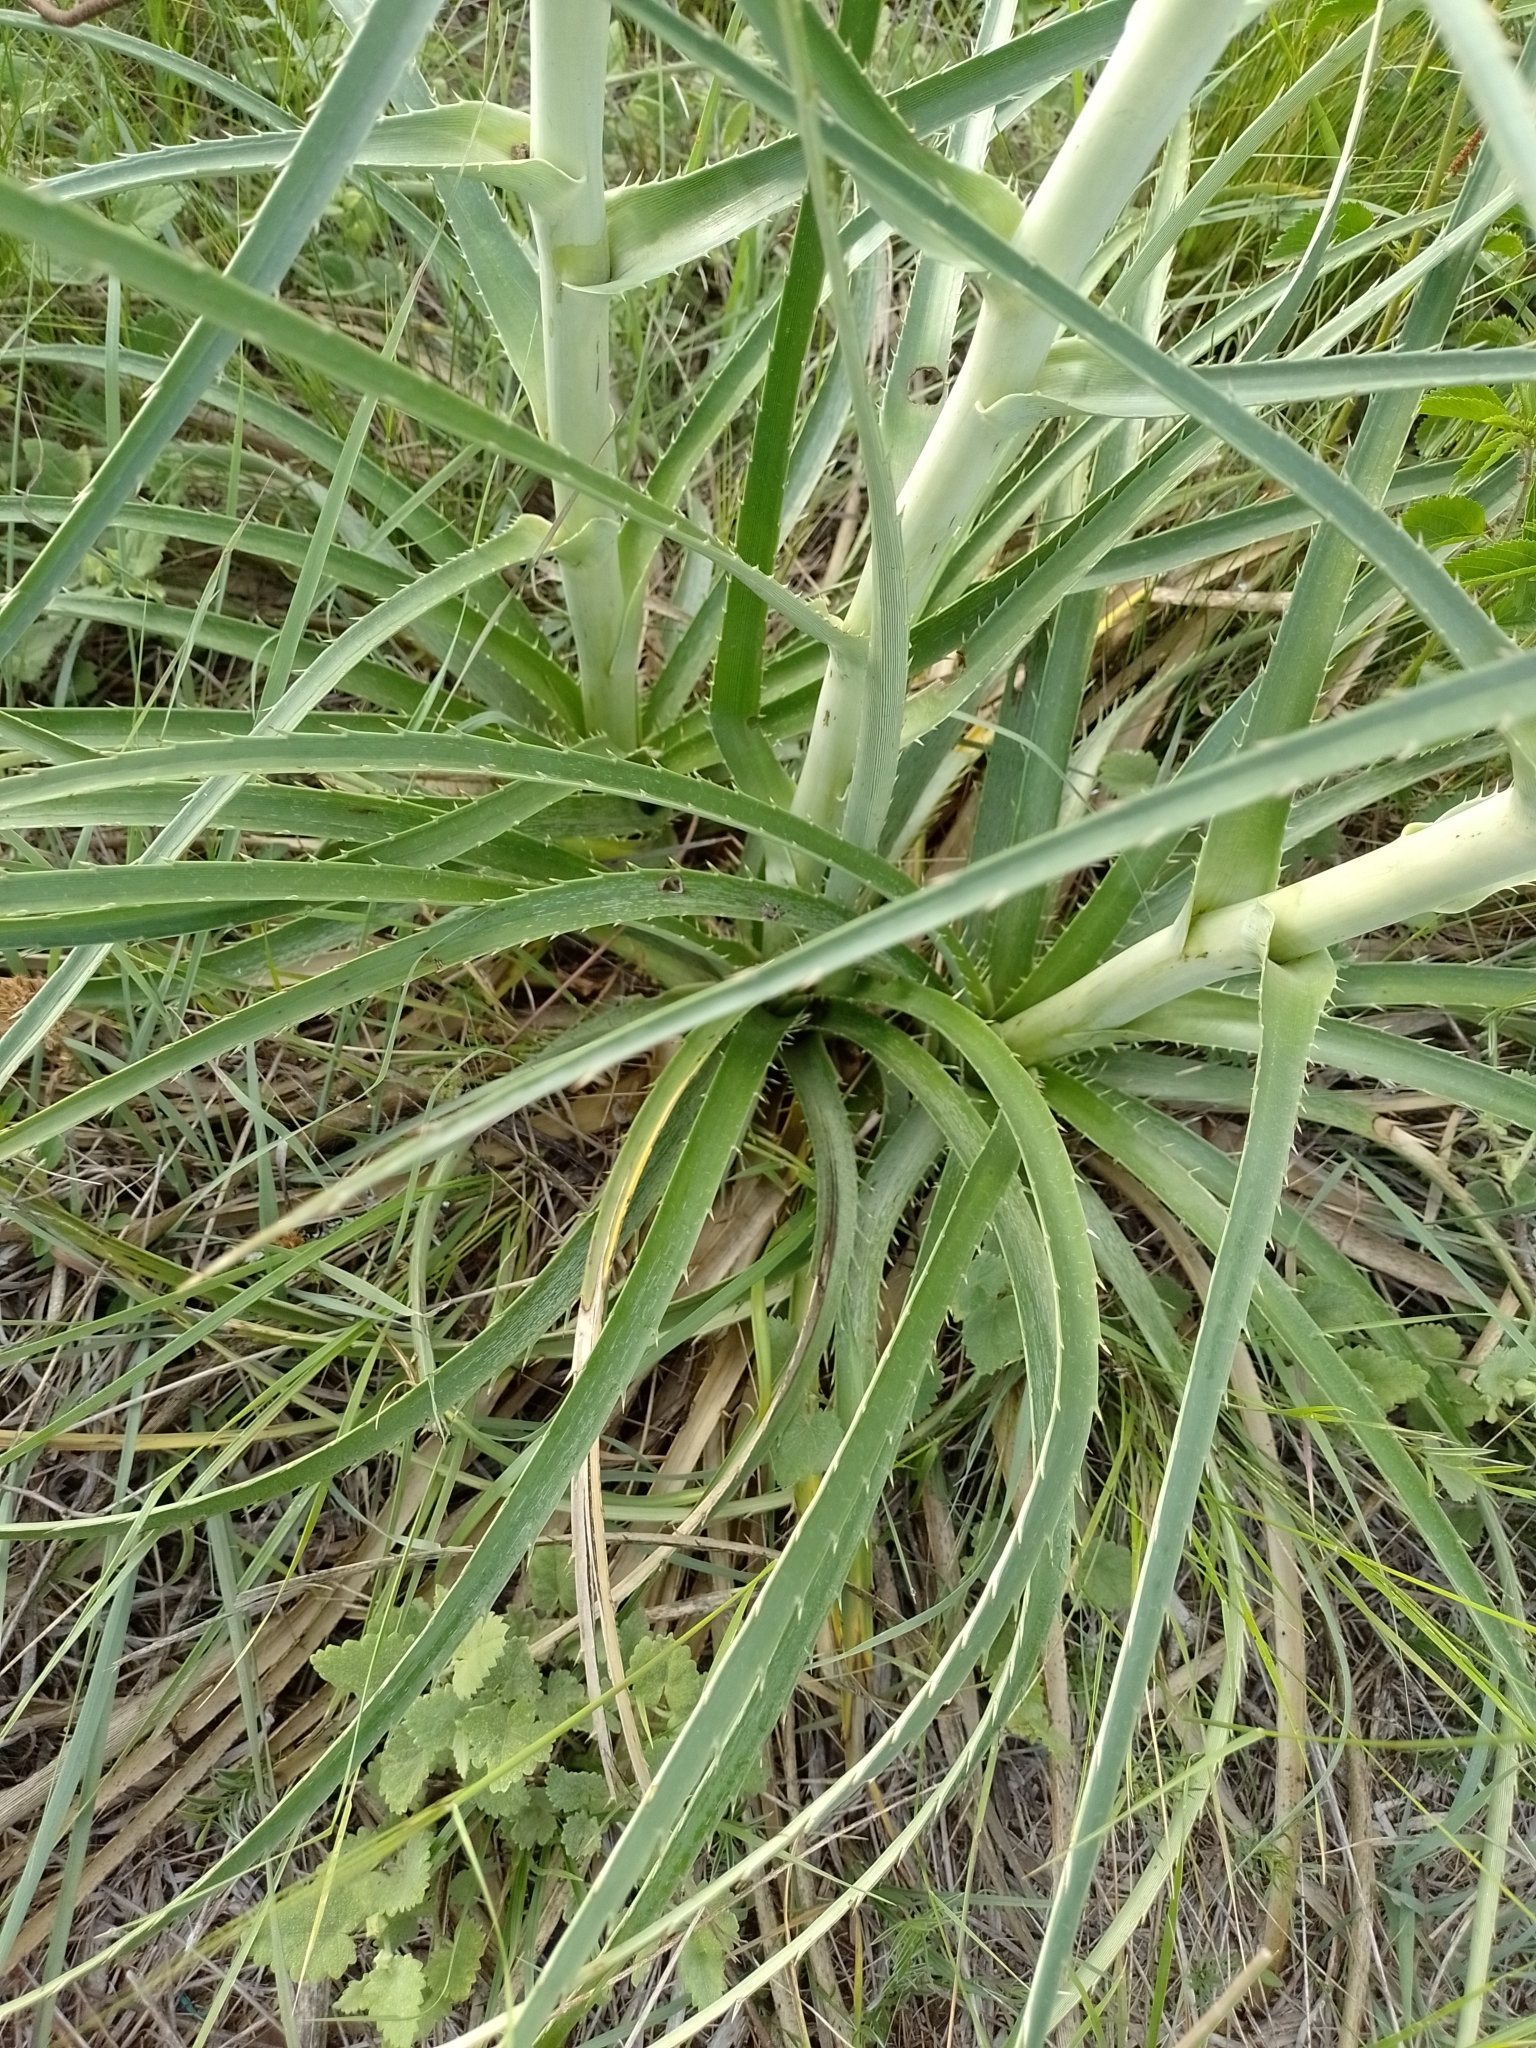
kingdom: Plantae
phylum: Tracheophyta
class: Magnoliopsida
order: Apiales
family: Apiaceae
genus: Eryngium
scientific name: Eryngium horridum
